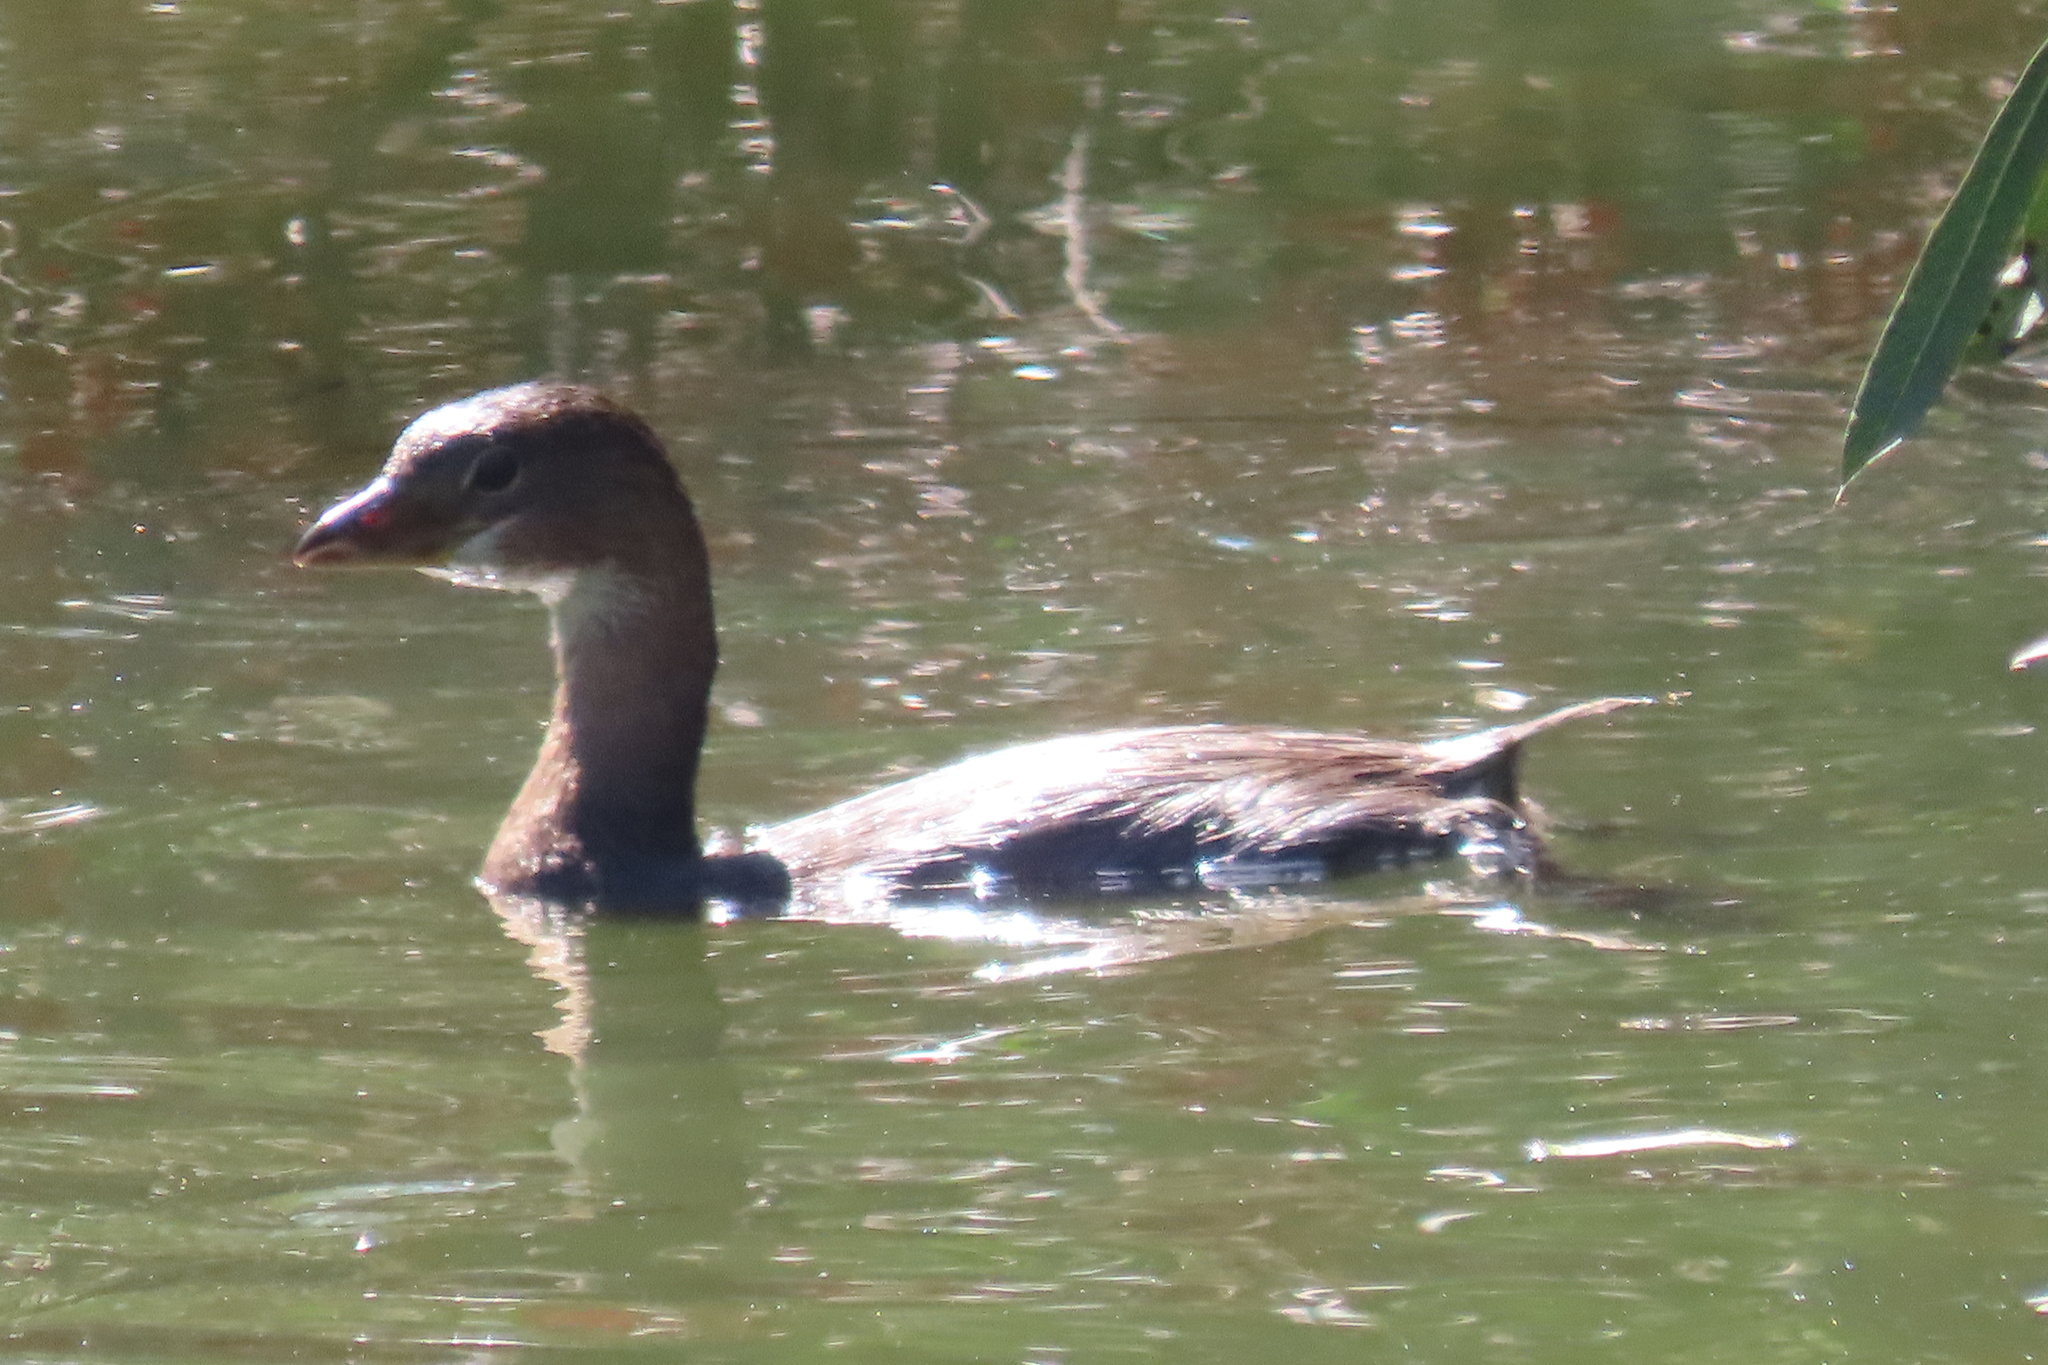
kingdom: Animalia
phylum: Chordata
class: Aves
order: Podicipediformes
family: Podicipedidae
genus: Podilymbus
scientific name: Podilymbus podiceps
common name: Pied-billed grebe
